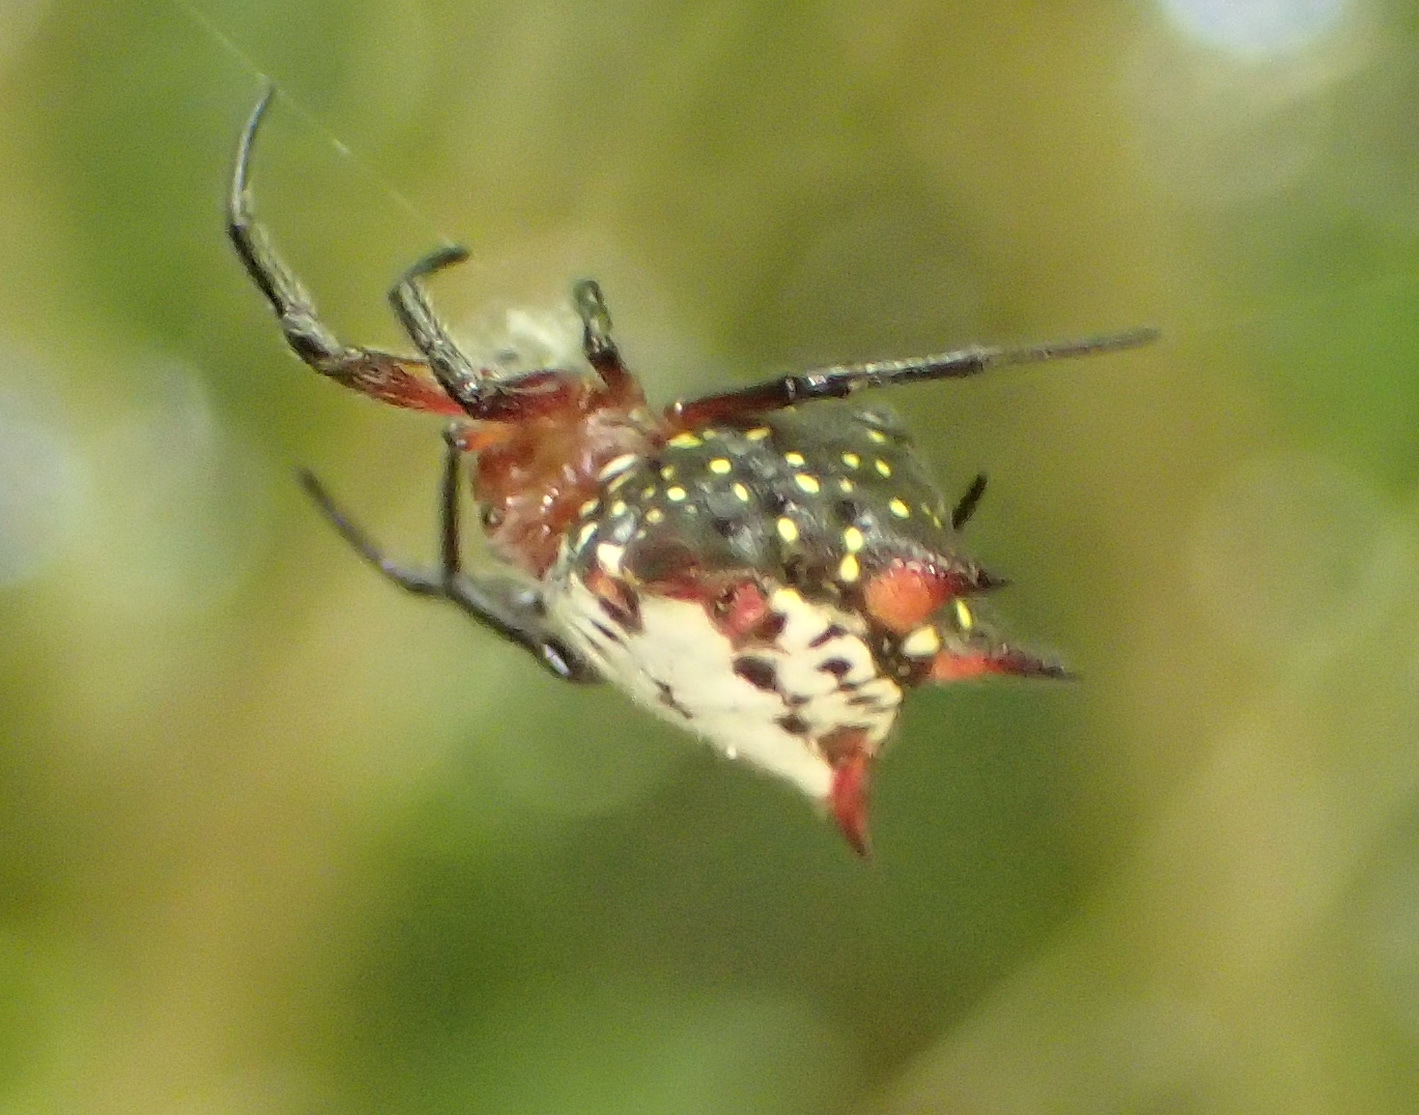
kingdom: Animalia
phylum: Arthropoda
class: Arachnida
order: Araneae
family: Araneidae
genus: Gasteracantha
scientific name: Gasteracantha sanguinolenta
